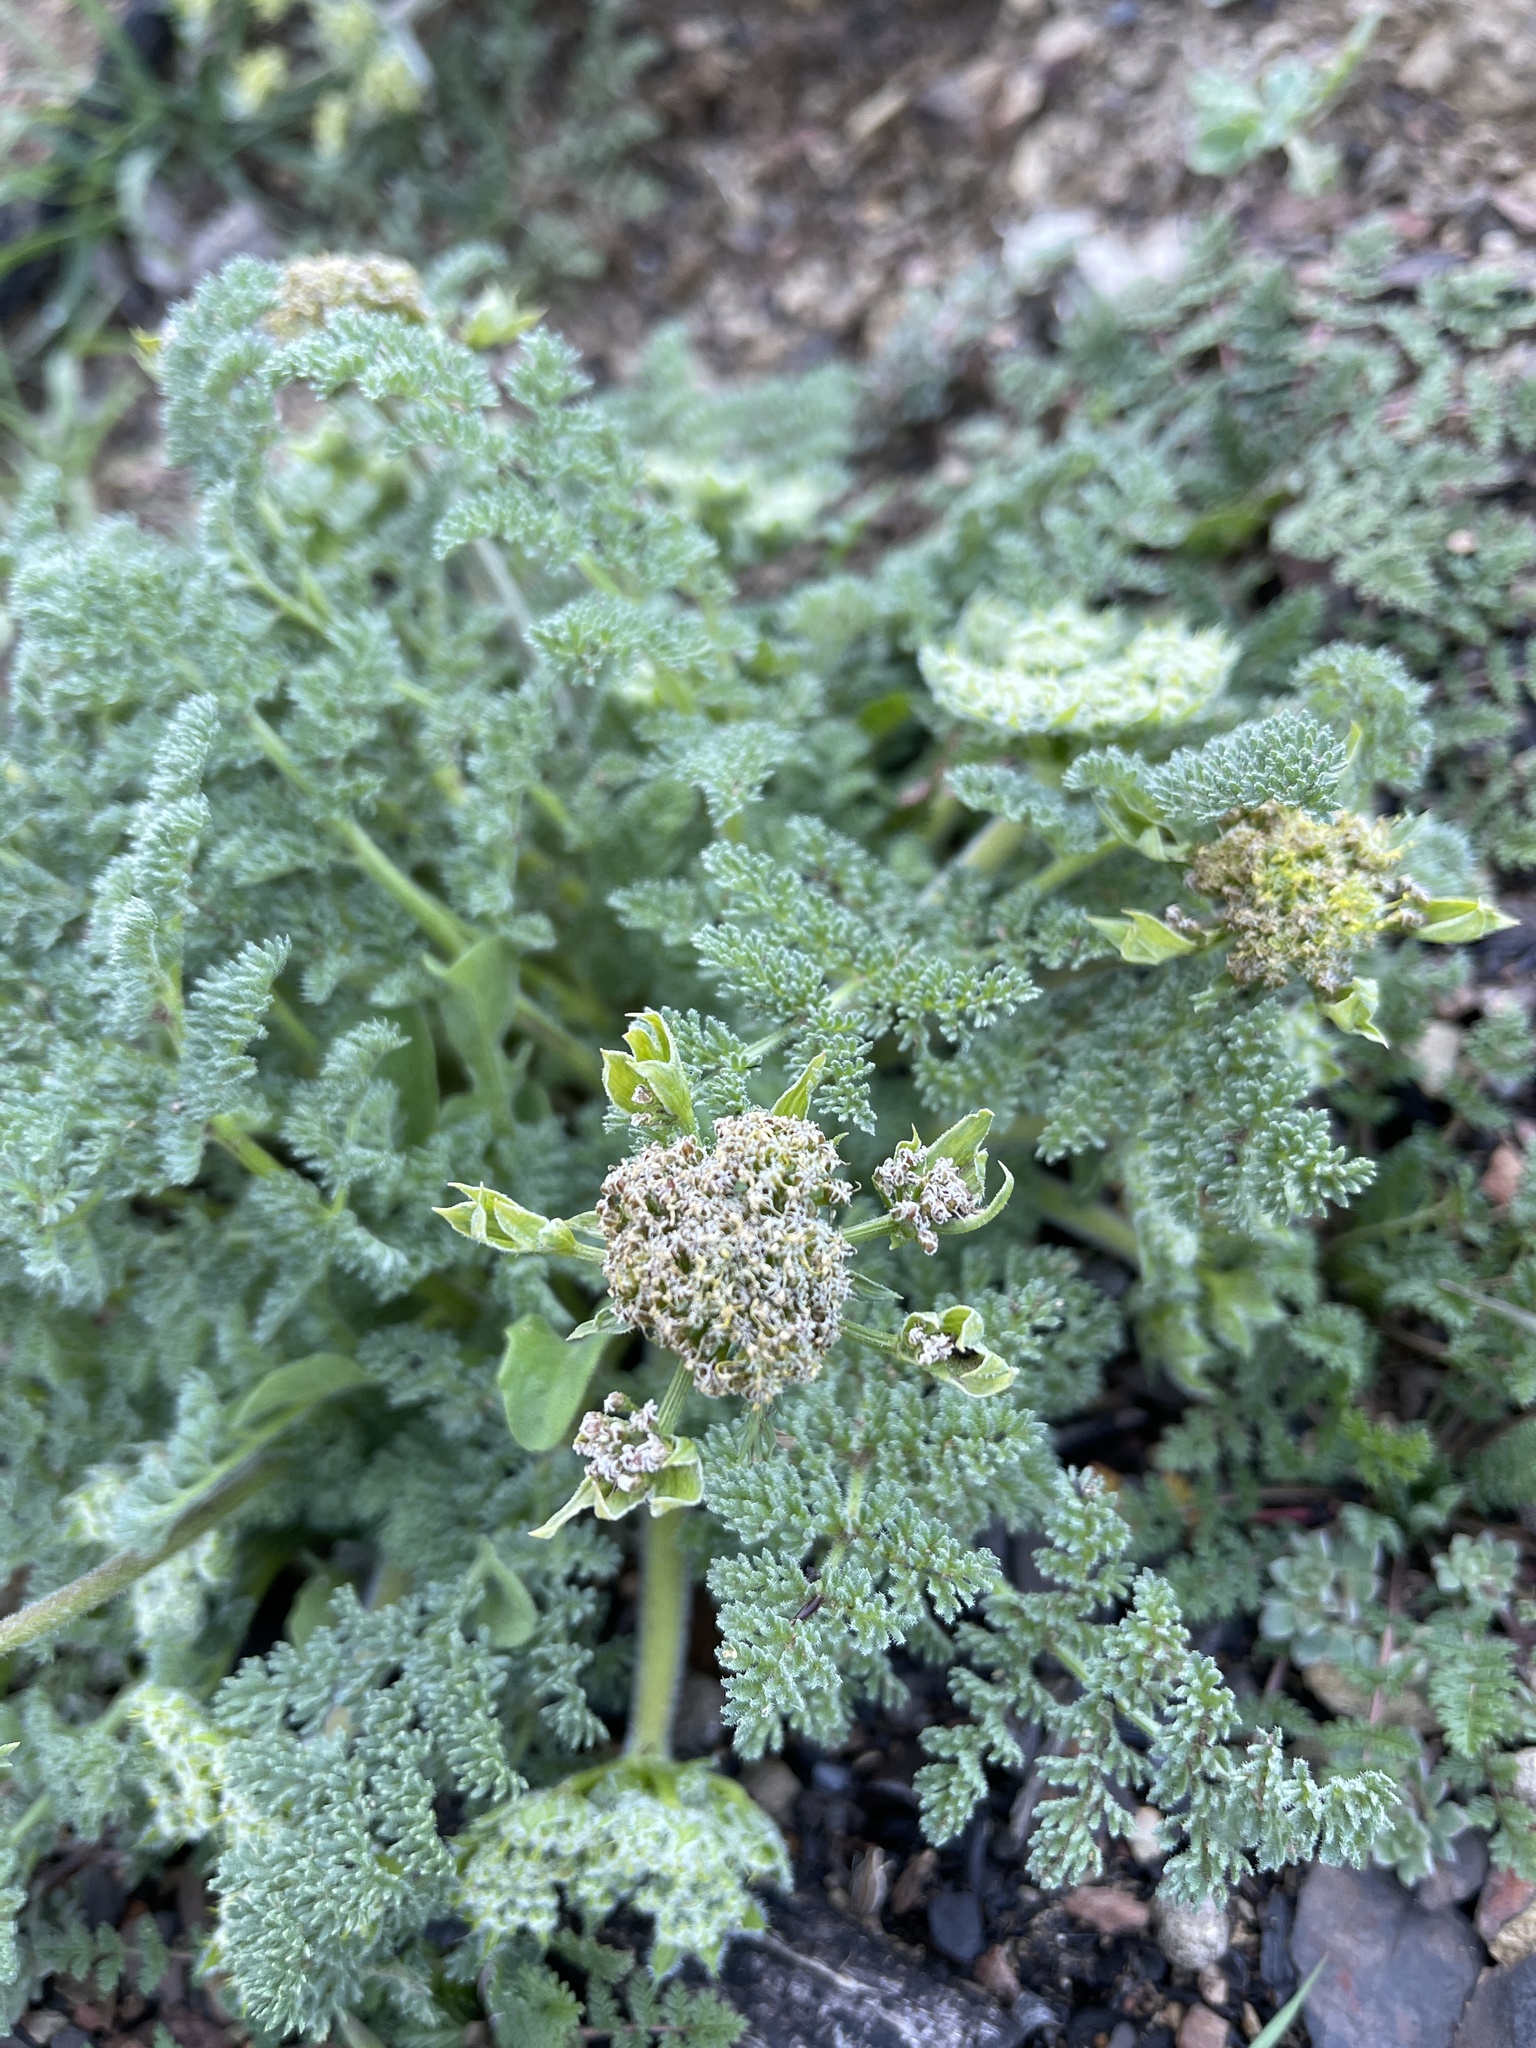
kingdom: Plantae
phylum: Tracheophyta
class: Magnoliopsida
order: Apiales
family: Apiaceae
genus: Lomatium
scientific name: Lomatium dasycarpum
